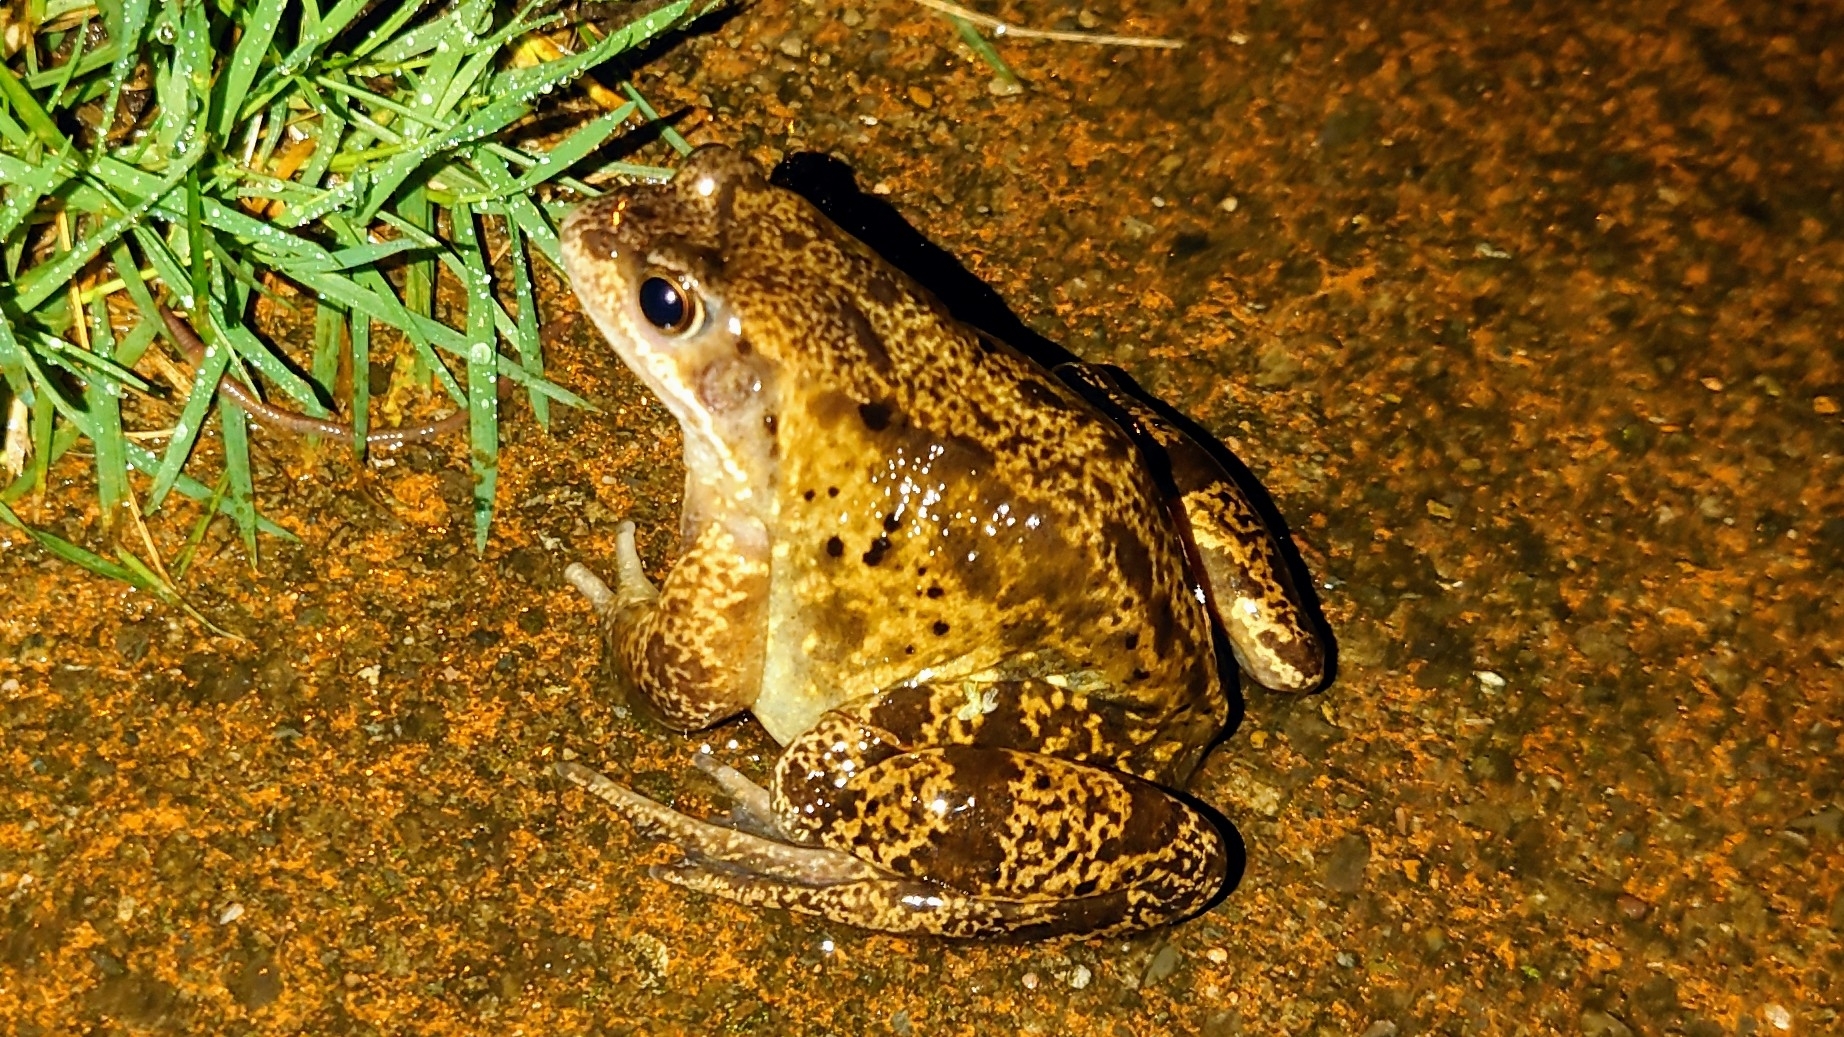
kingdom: Animalia
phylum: Chordata
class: Amphibia
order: Anura
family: Ranidae
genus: Rana
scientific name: Rana temporaria
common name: Common frog
